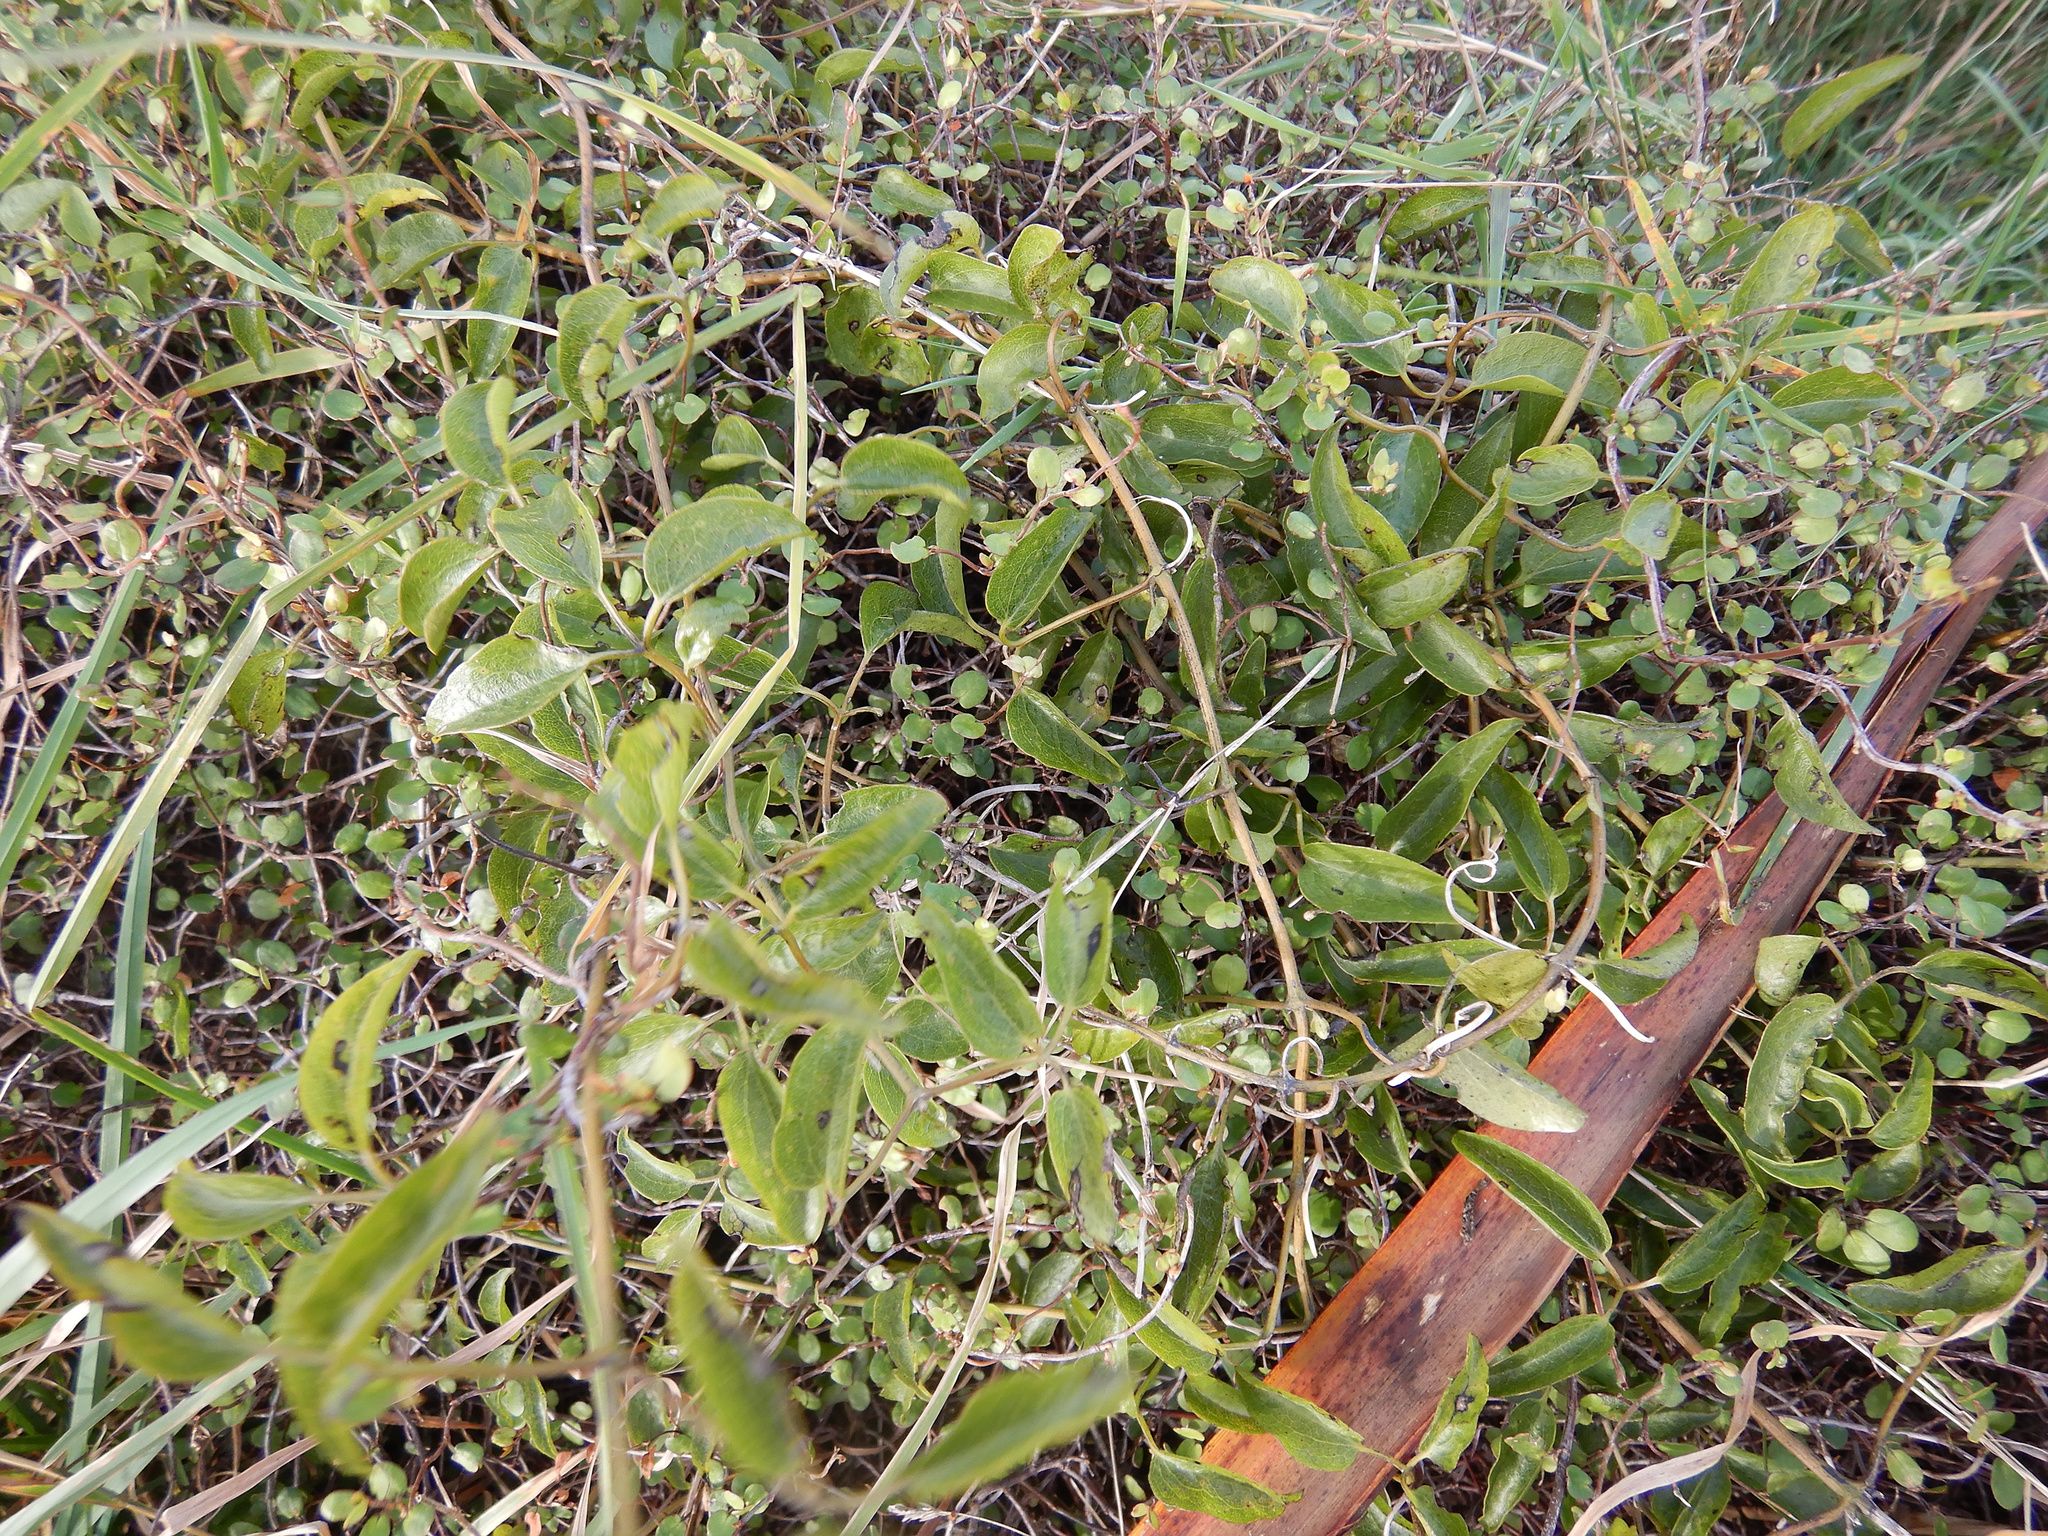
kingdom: Plantae
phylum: Tracheophyta
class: Magnoliopsida
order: Ranunculales
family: Ranunculaceae
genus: Clematis
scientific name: Clematis foetida
